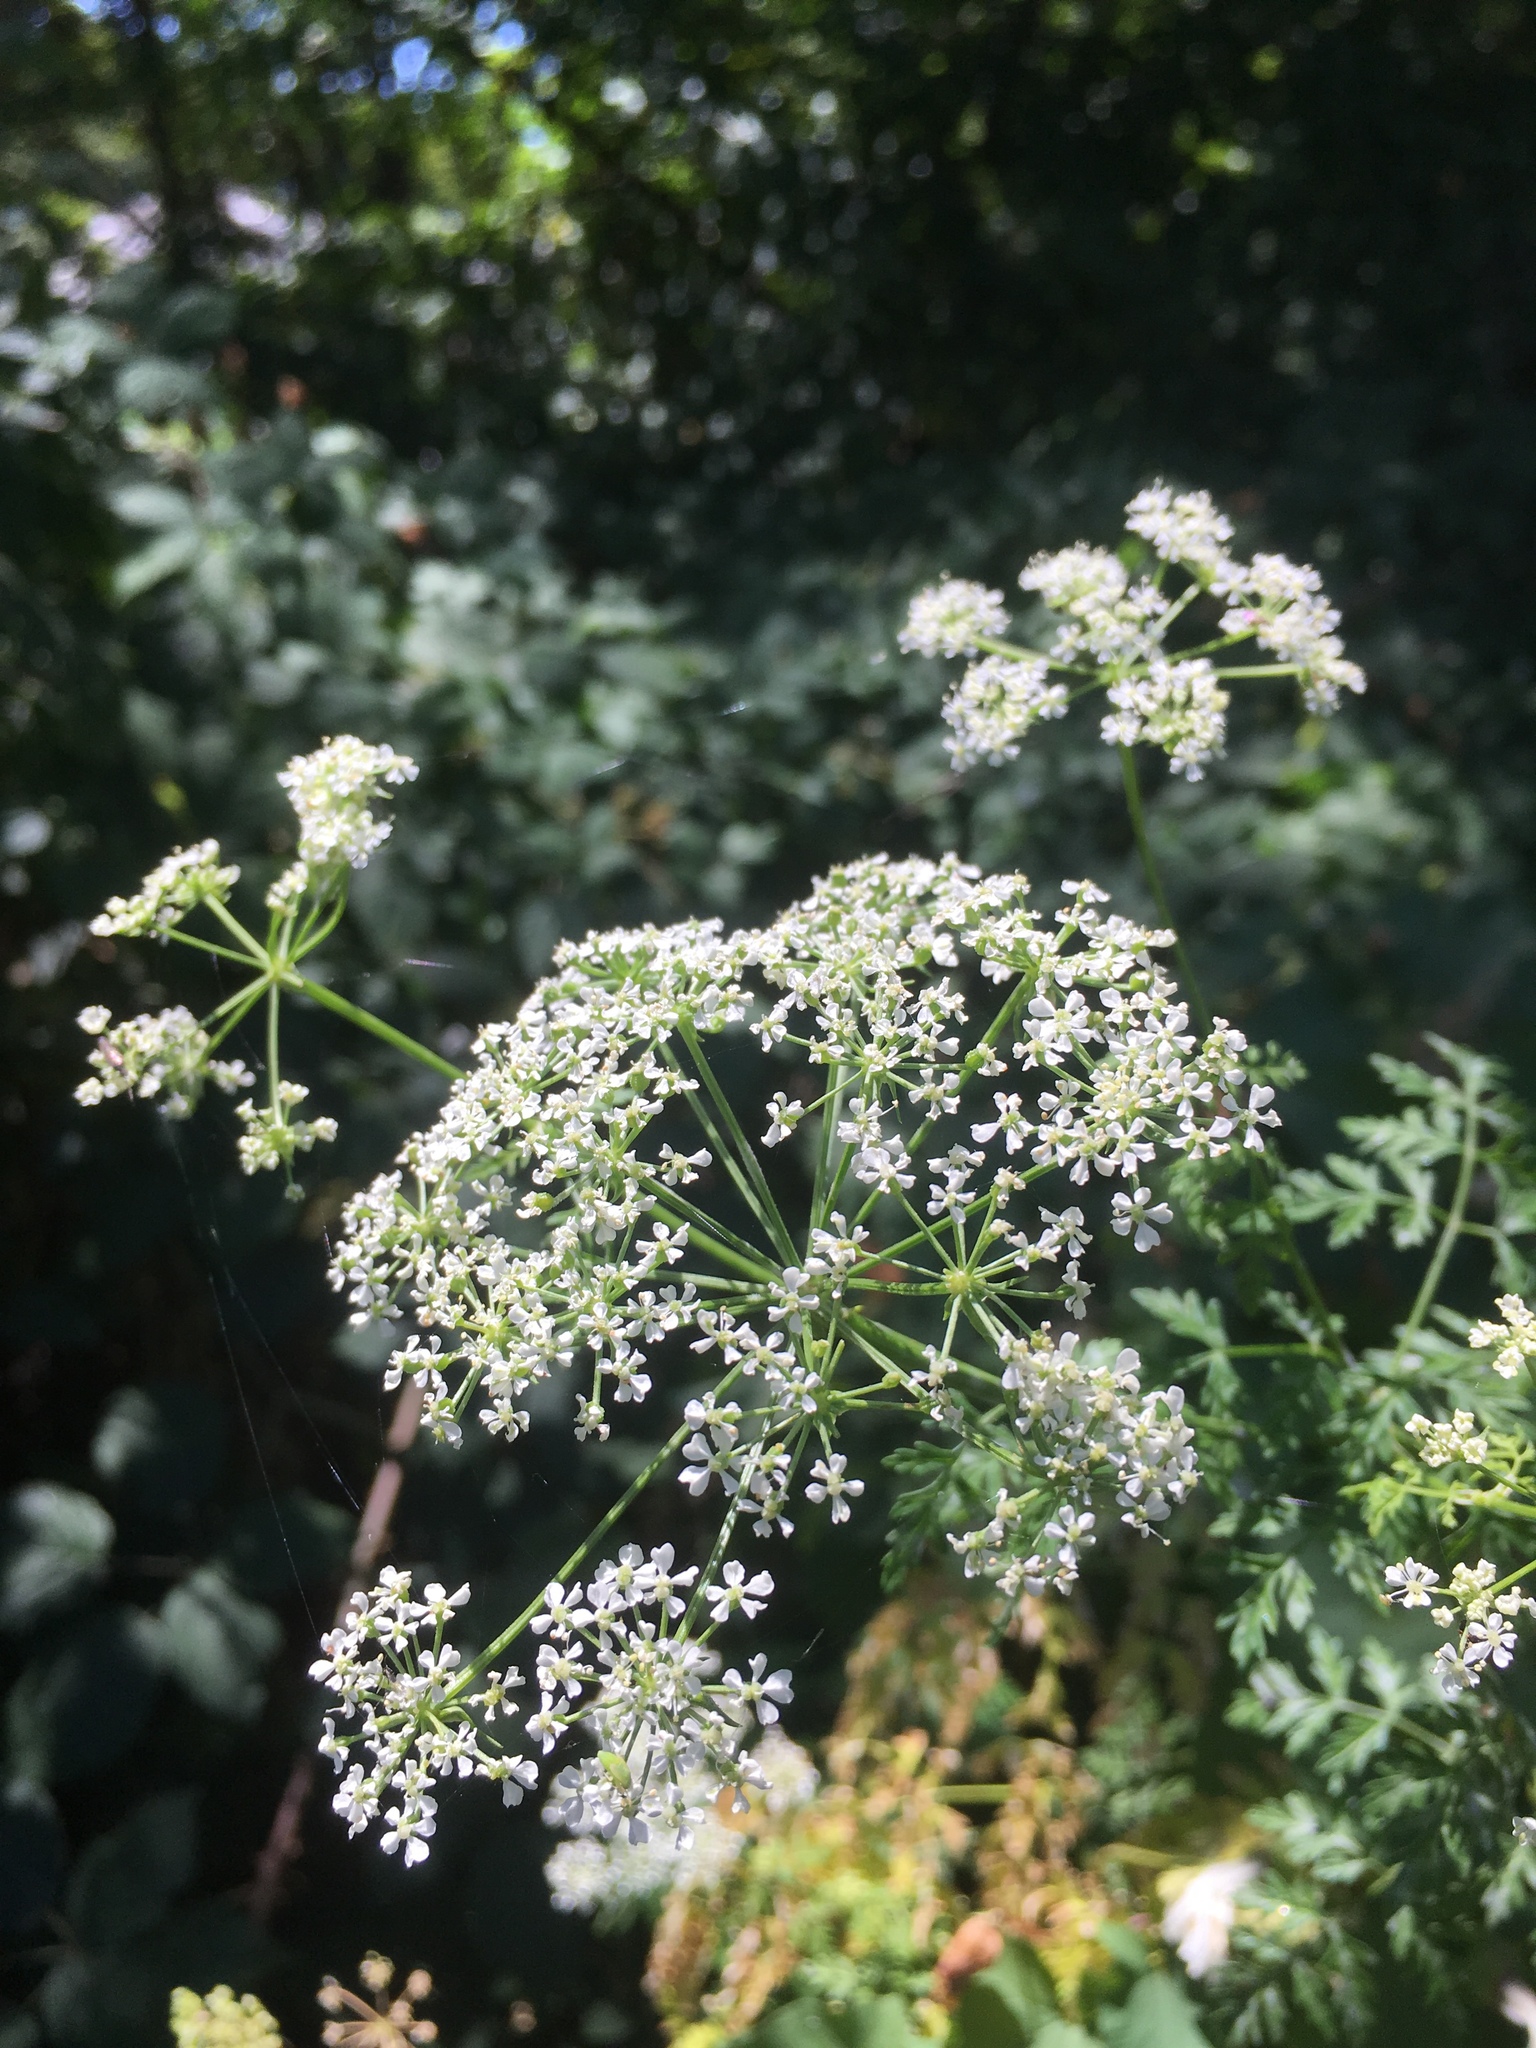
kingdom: Plantae
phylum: Tracheophyta
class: Magnoliopsida
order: Apiales
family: Apiaceae
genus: Conium
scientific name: Conium maculatum
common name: Hemlock
